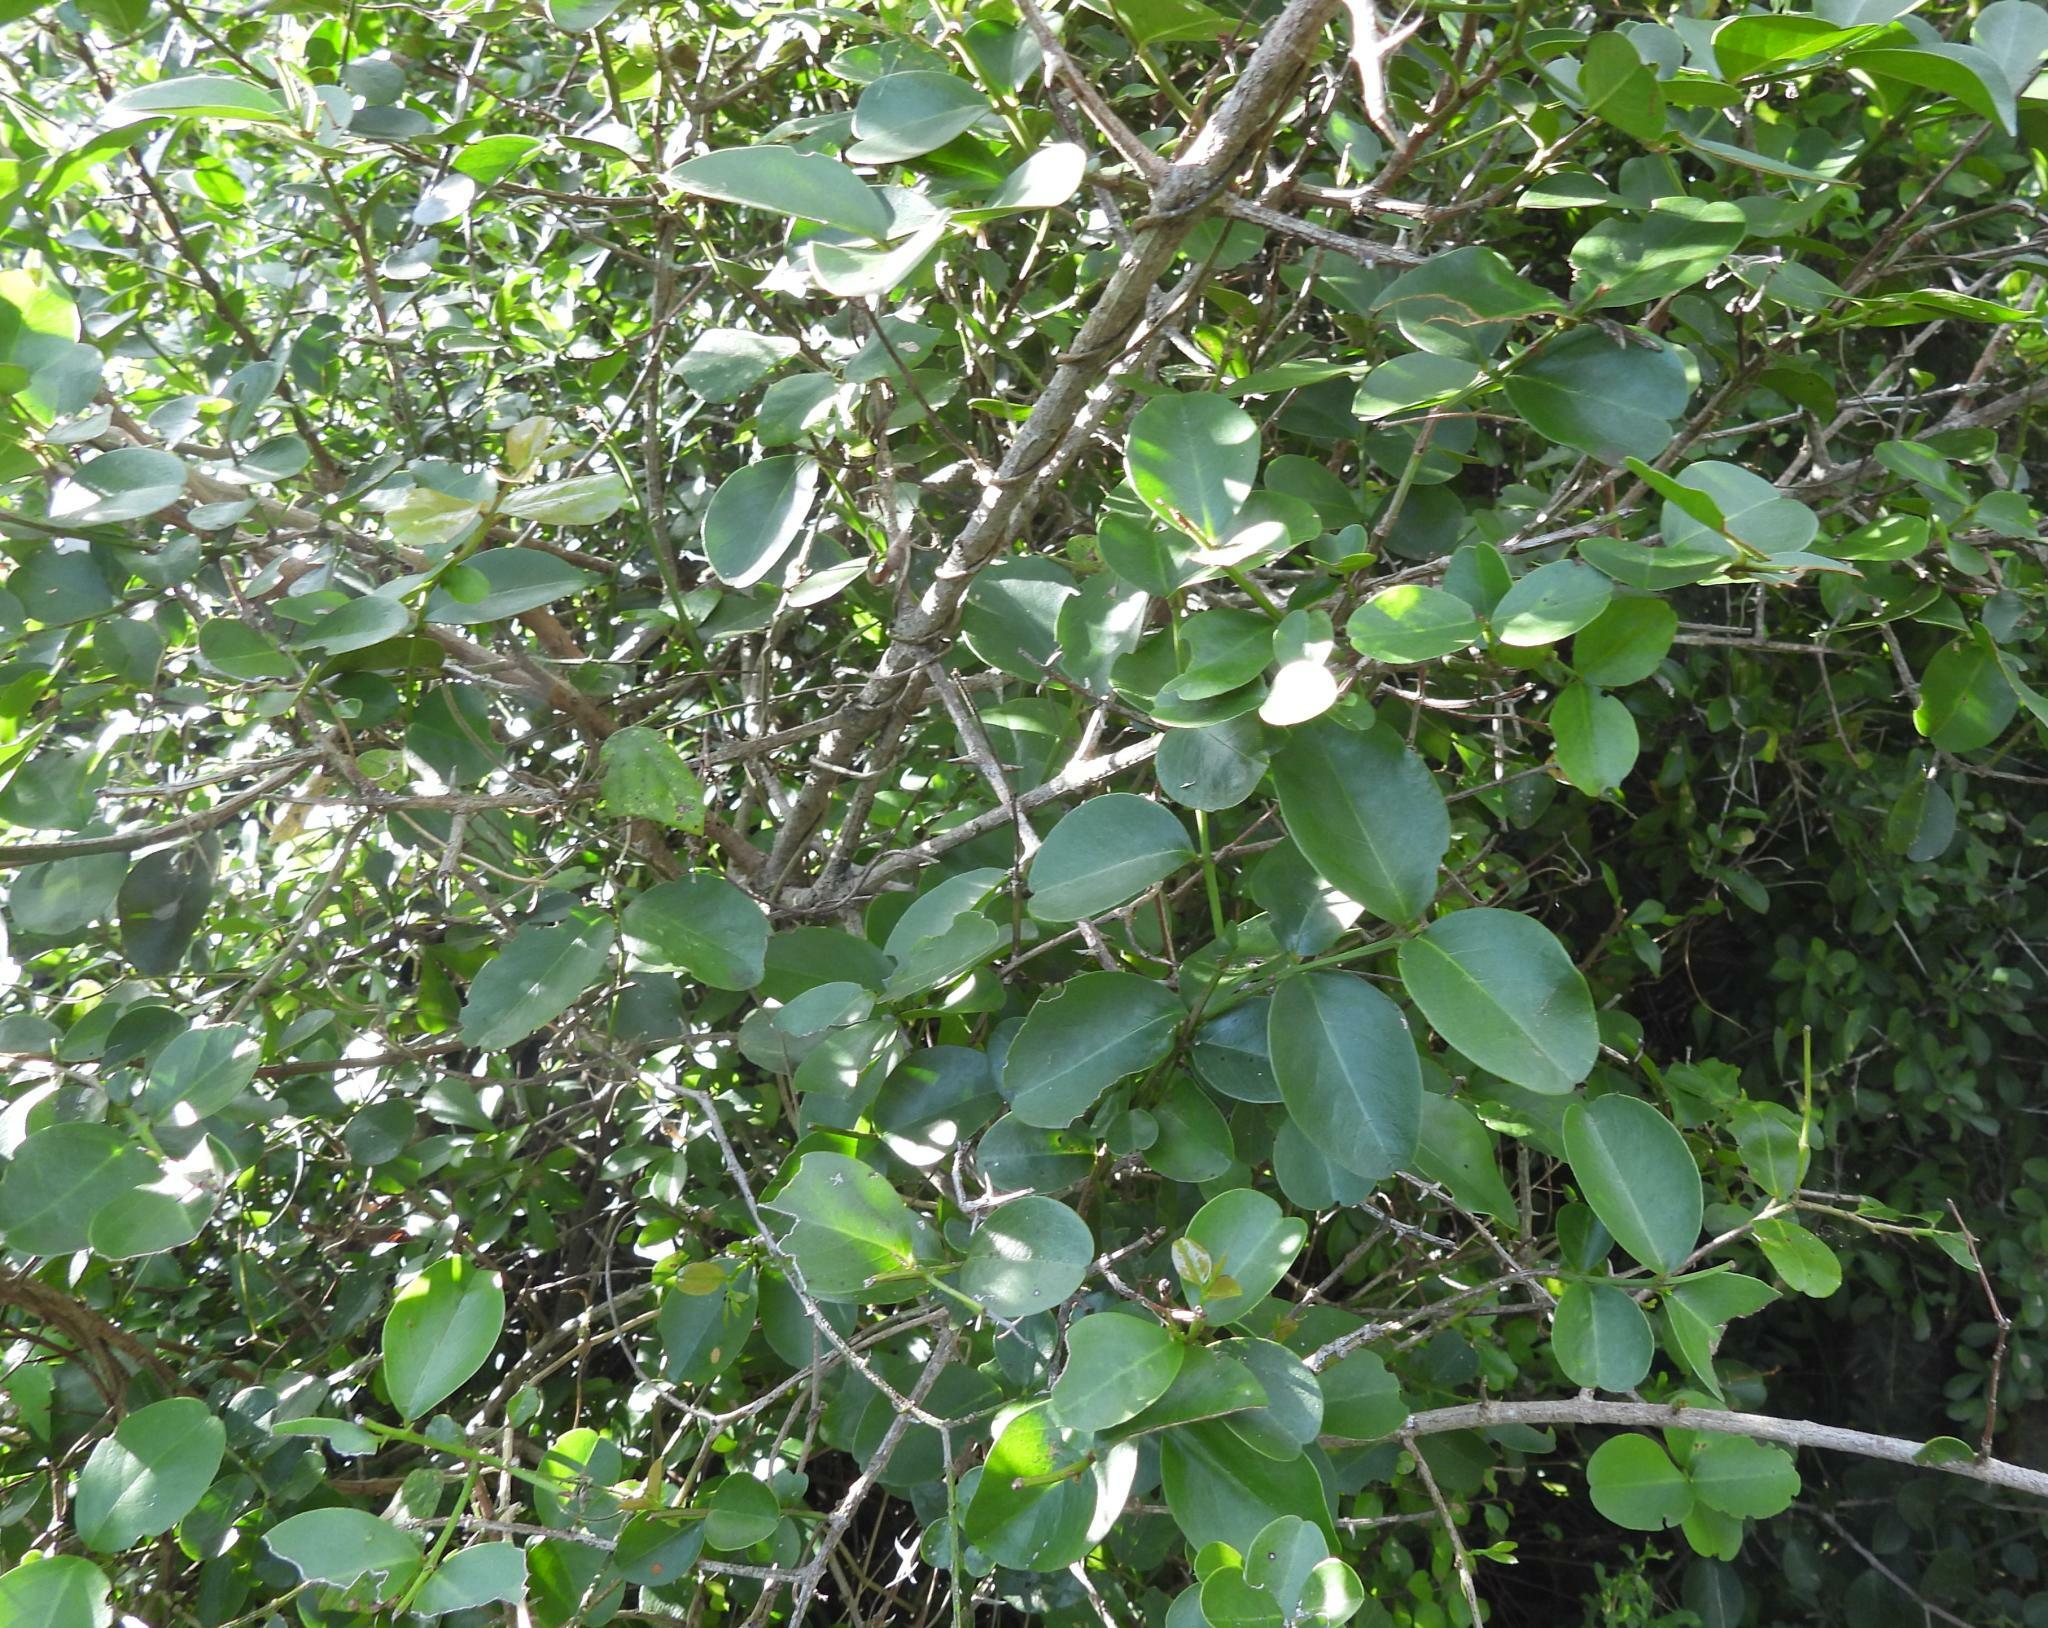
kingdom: Plantae
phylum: Tracheophyta
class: Magnoliopsida
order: Rosales
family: Rhamnaceae
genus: Scutia
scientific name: Scutia myrtina
